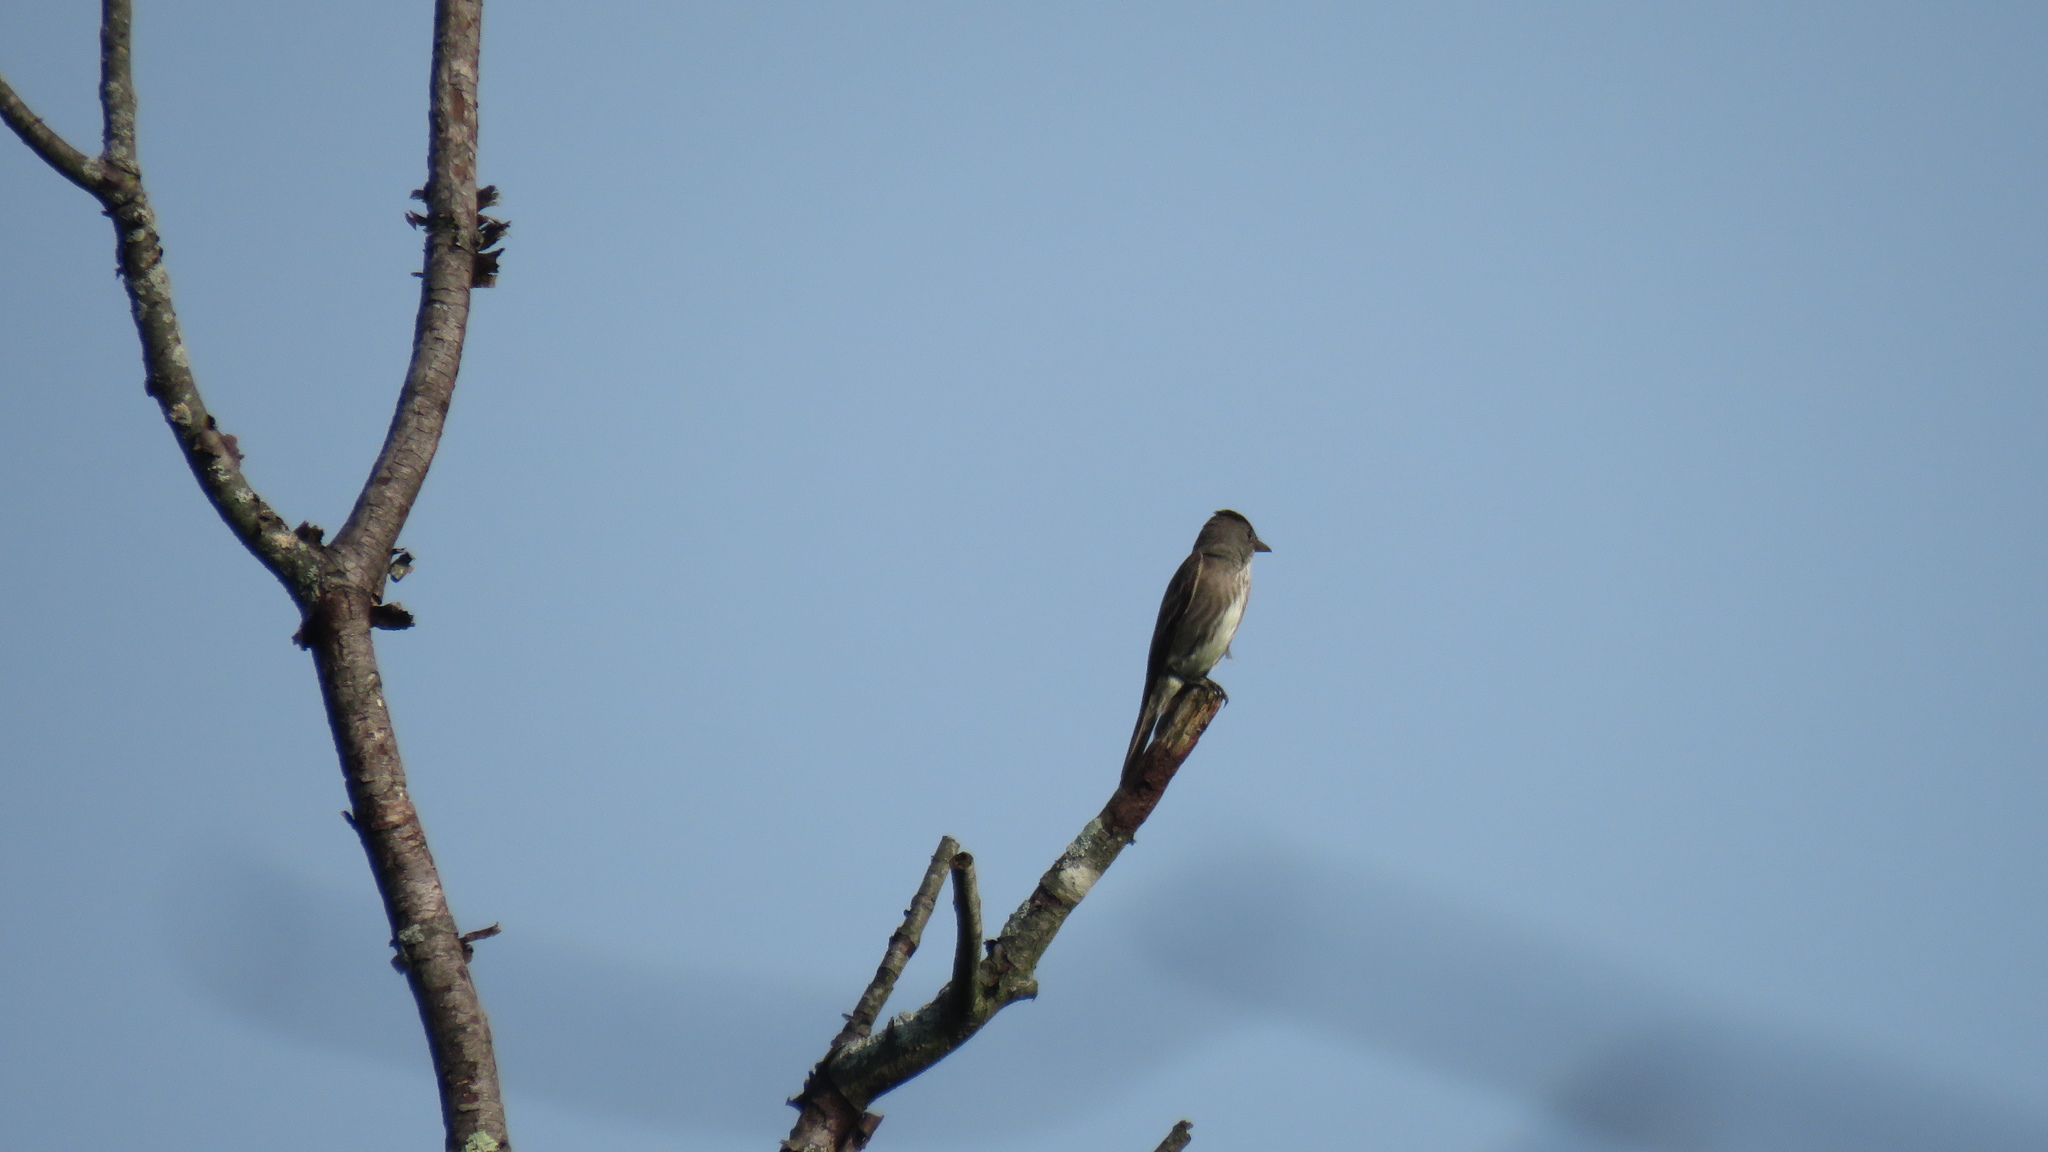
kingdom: Animalia
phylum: Chordata
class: Aves
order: Passeriformes
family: Tyrannidae
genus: Contopus
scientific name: Contopus cooperi
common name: Olive-sided flycatcher
